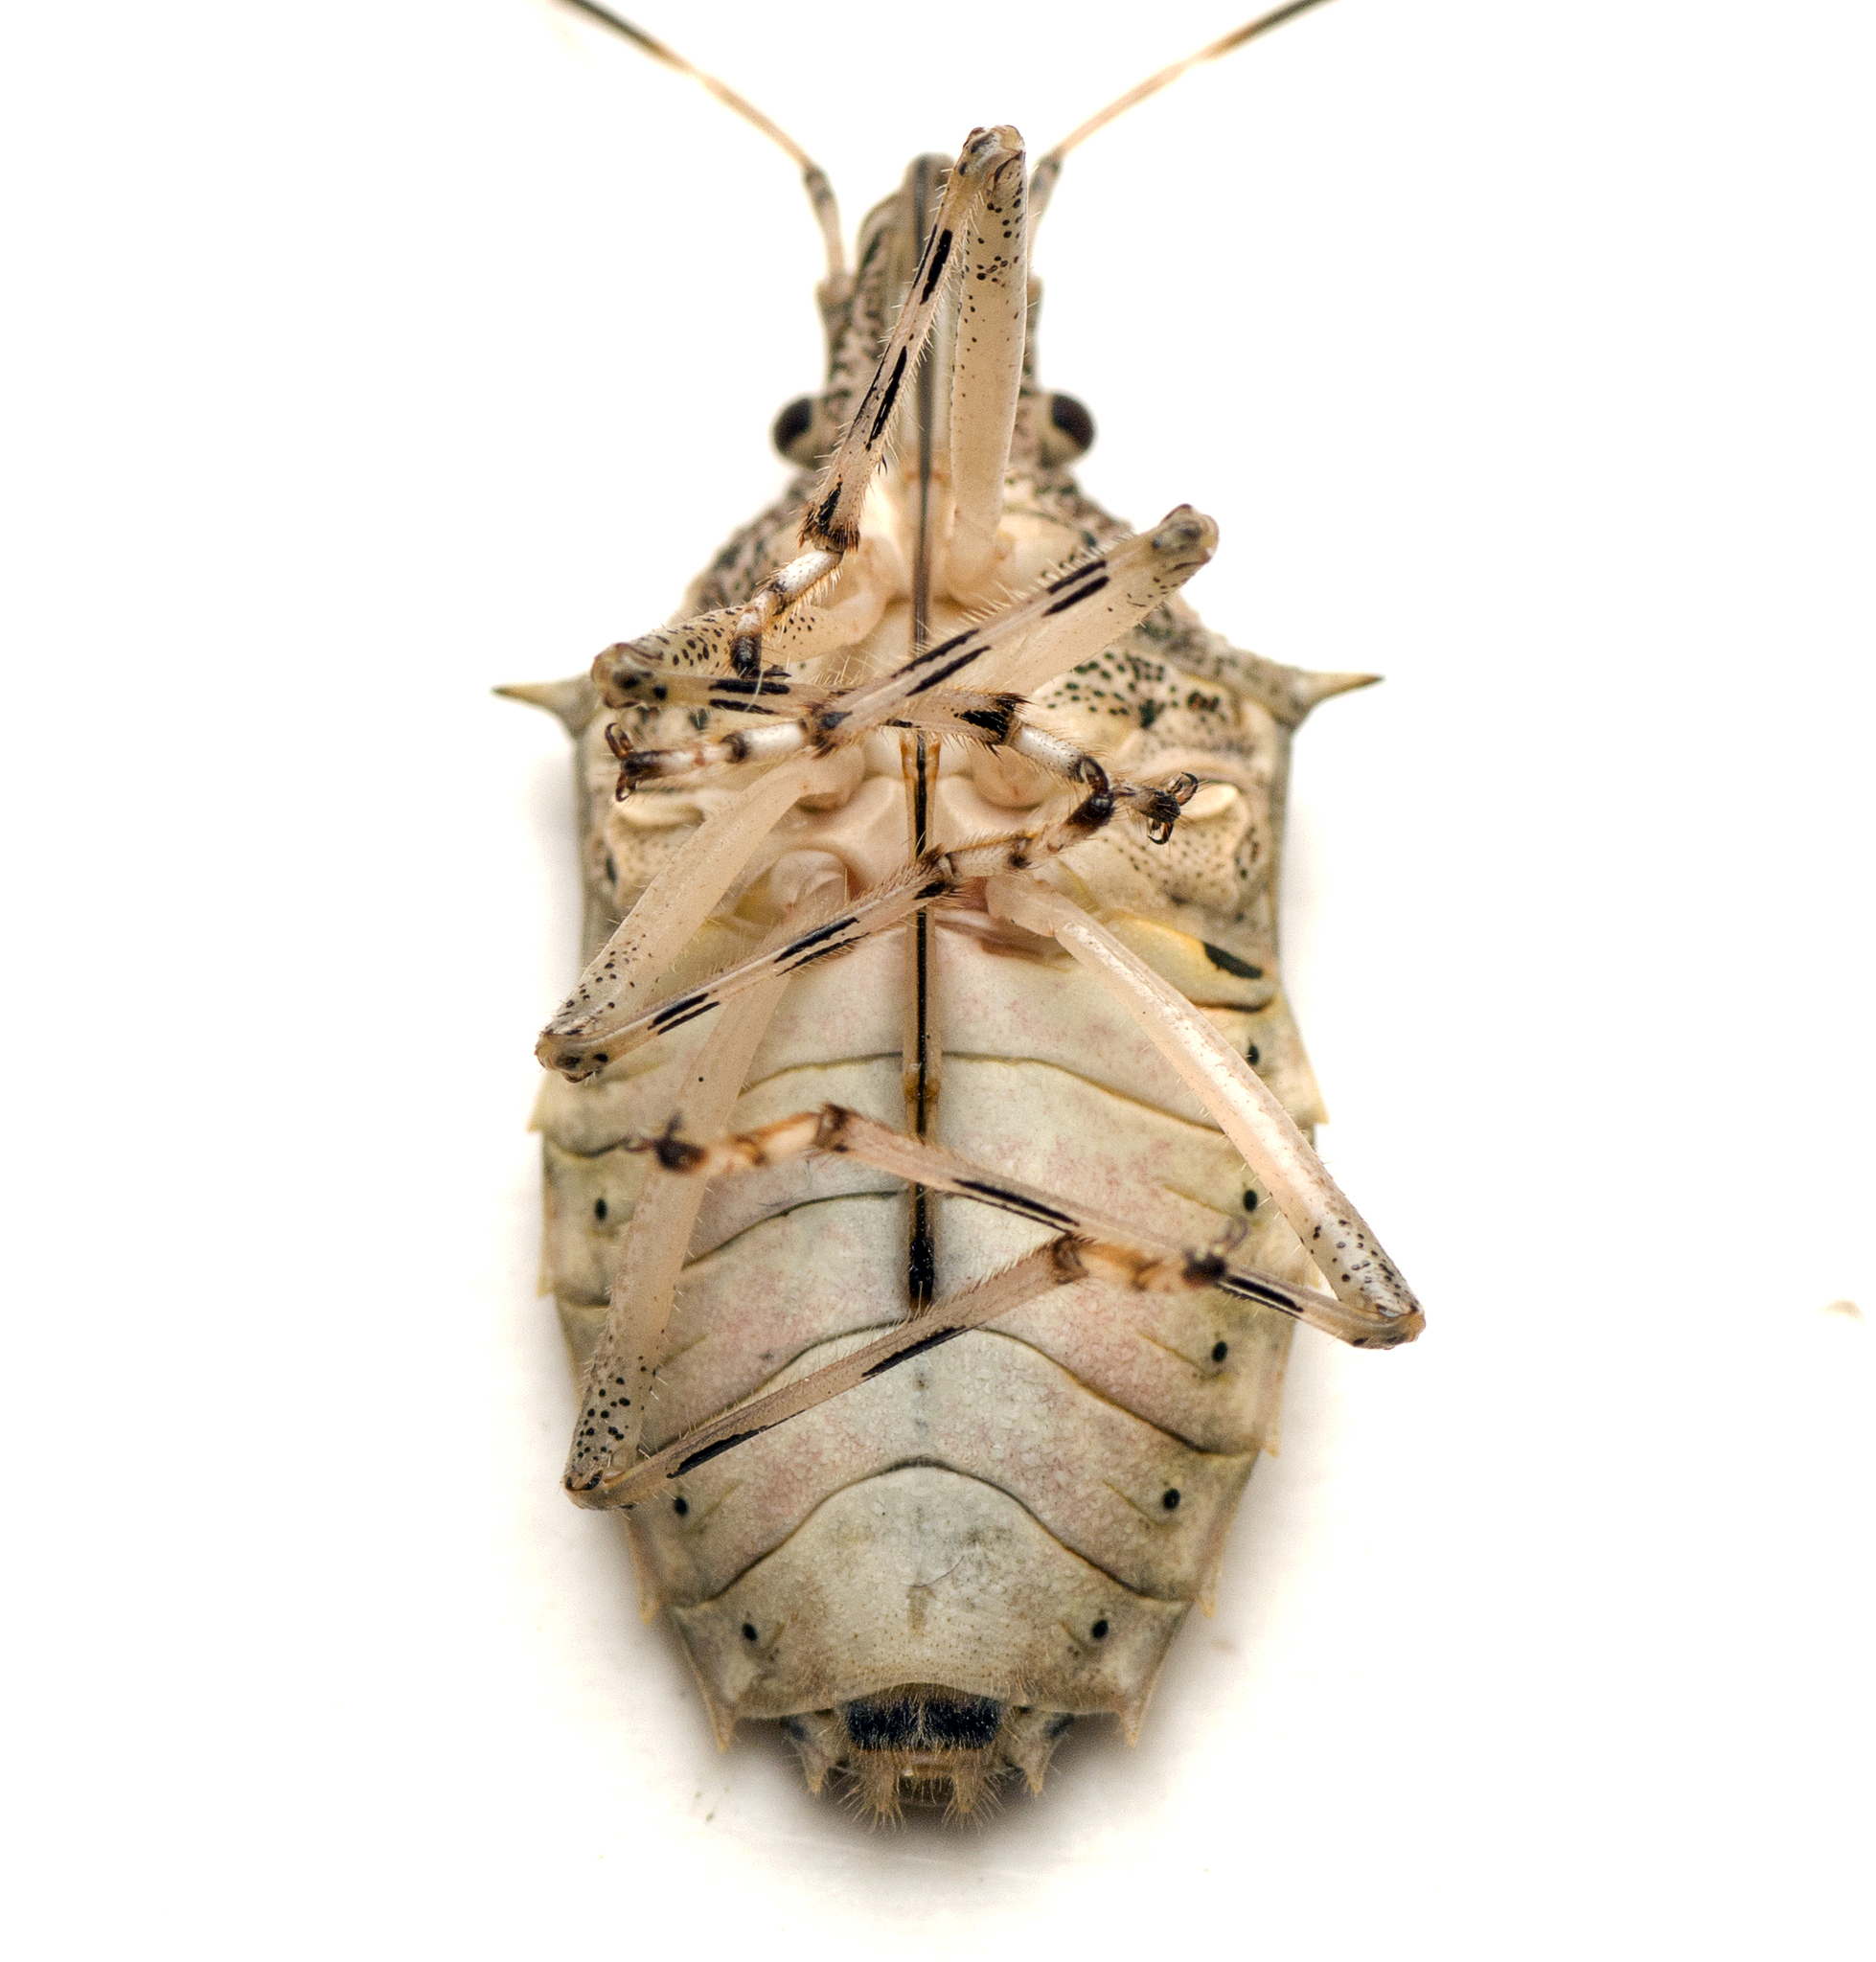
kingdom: Animalia
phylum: Arthropoda
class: Insecta
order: Hemiptera
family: Pentatomidae
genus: Bromocoris
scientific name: Bromocoris
